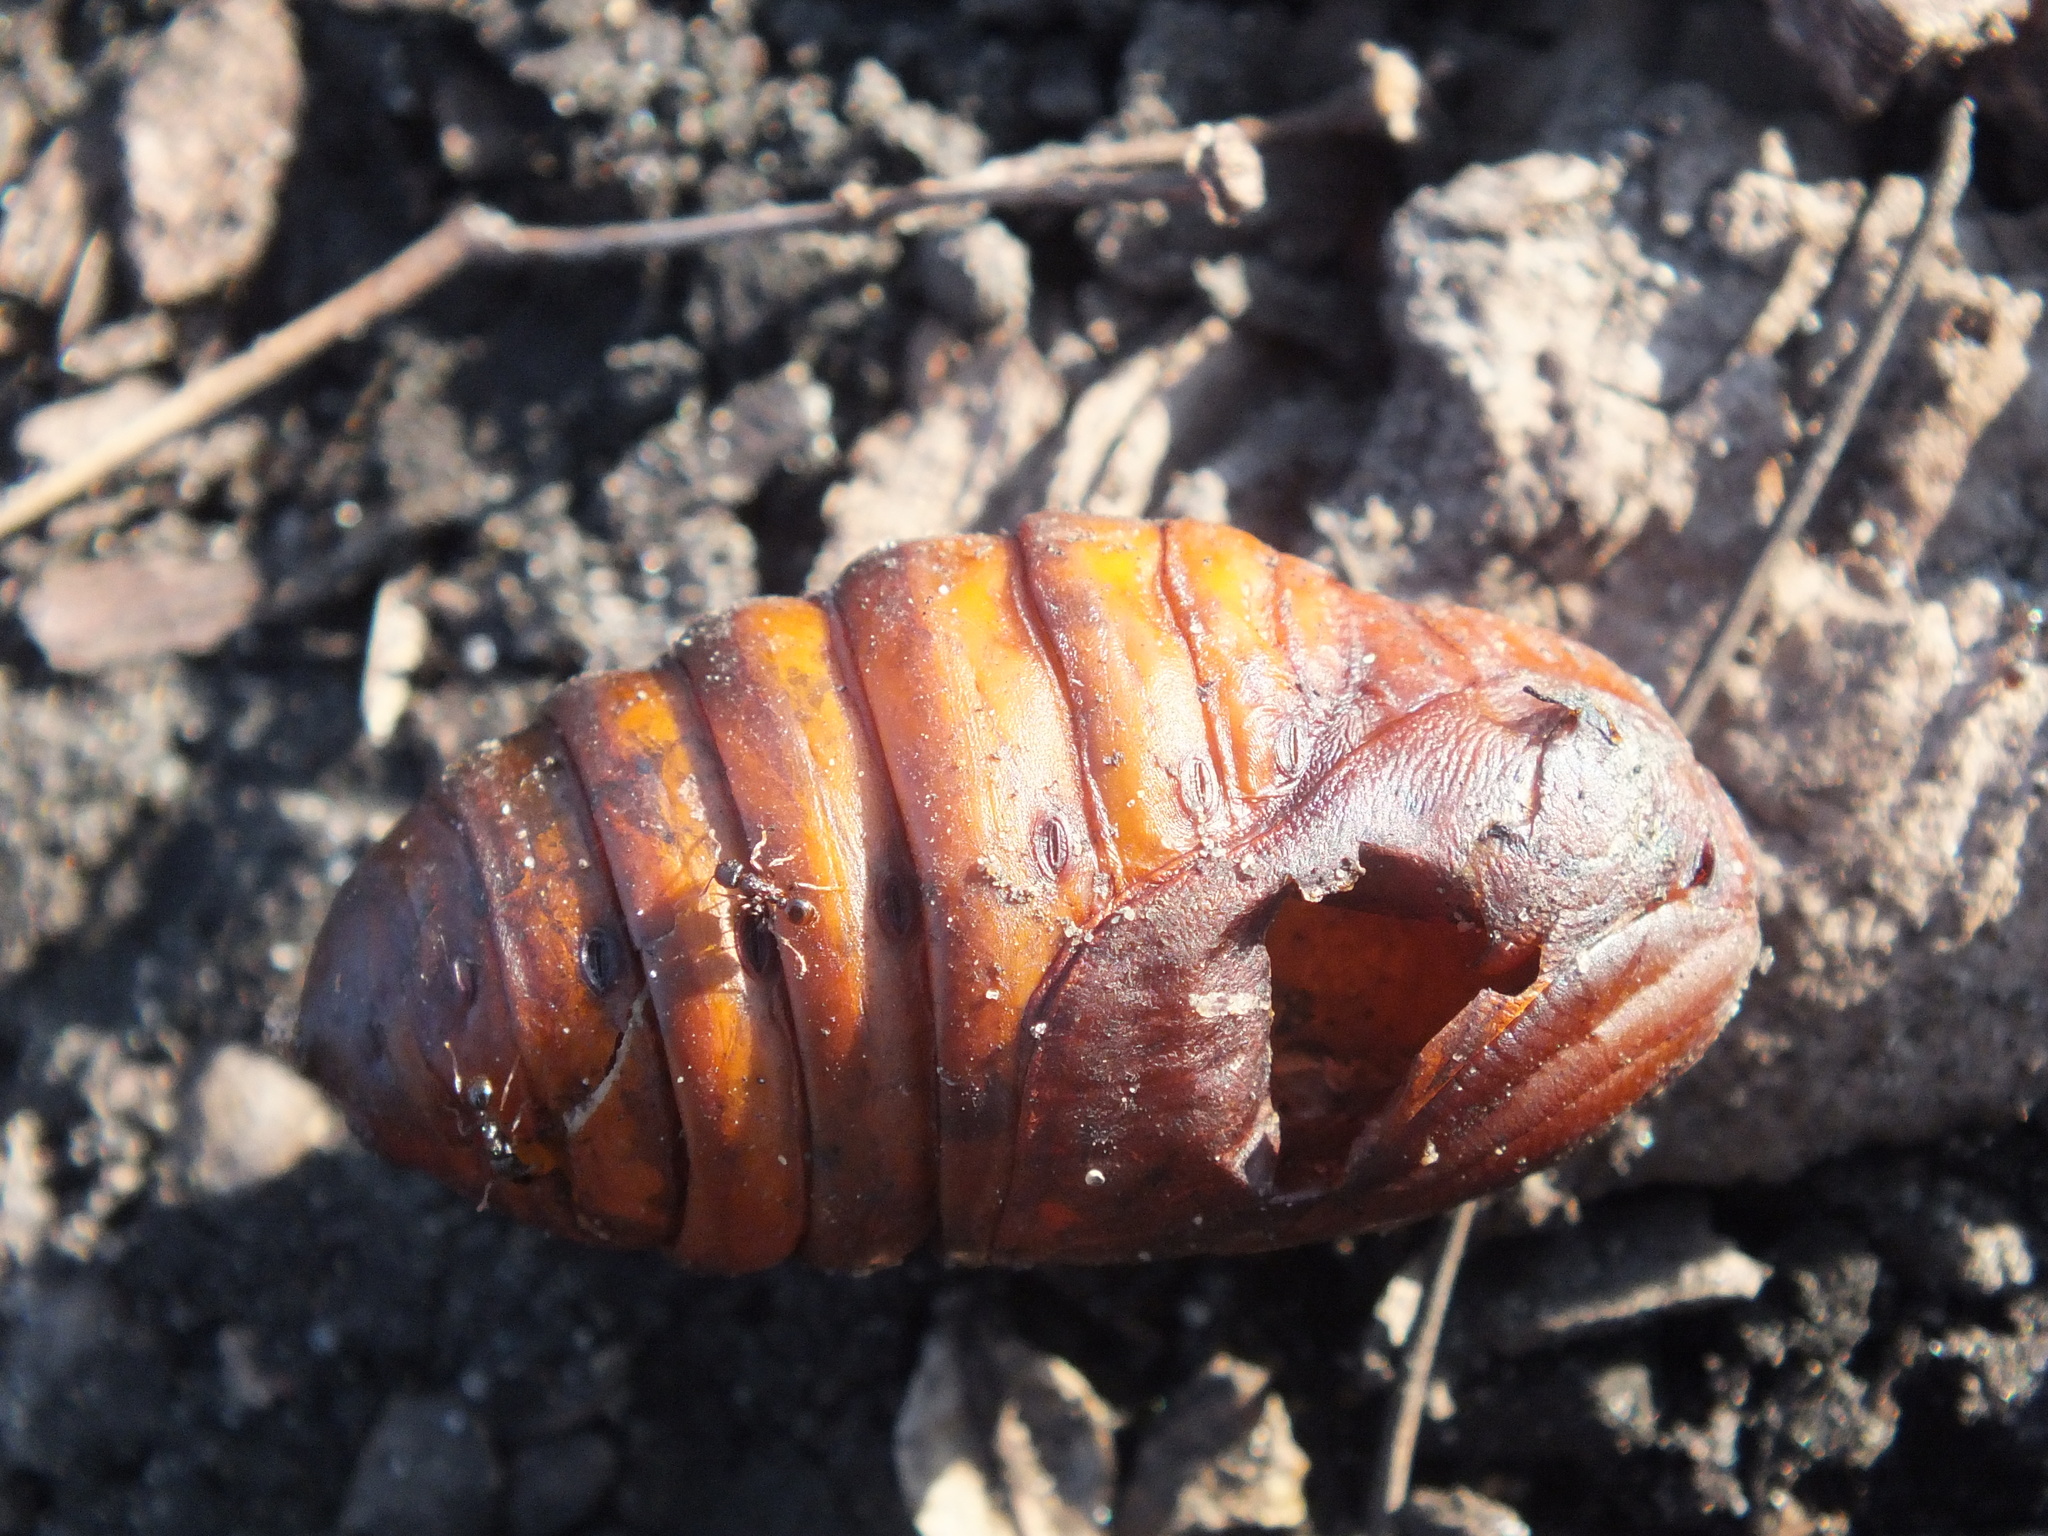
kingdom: Animalia
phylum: Arthropoda
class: Insecta
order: Hymenoptera
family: Formicidae
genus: Tetramorium
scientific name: Tetramorium immigrans
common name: Pavement ant
